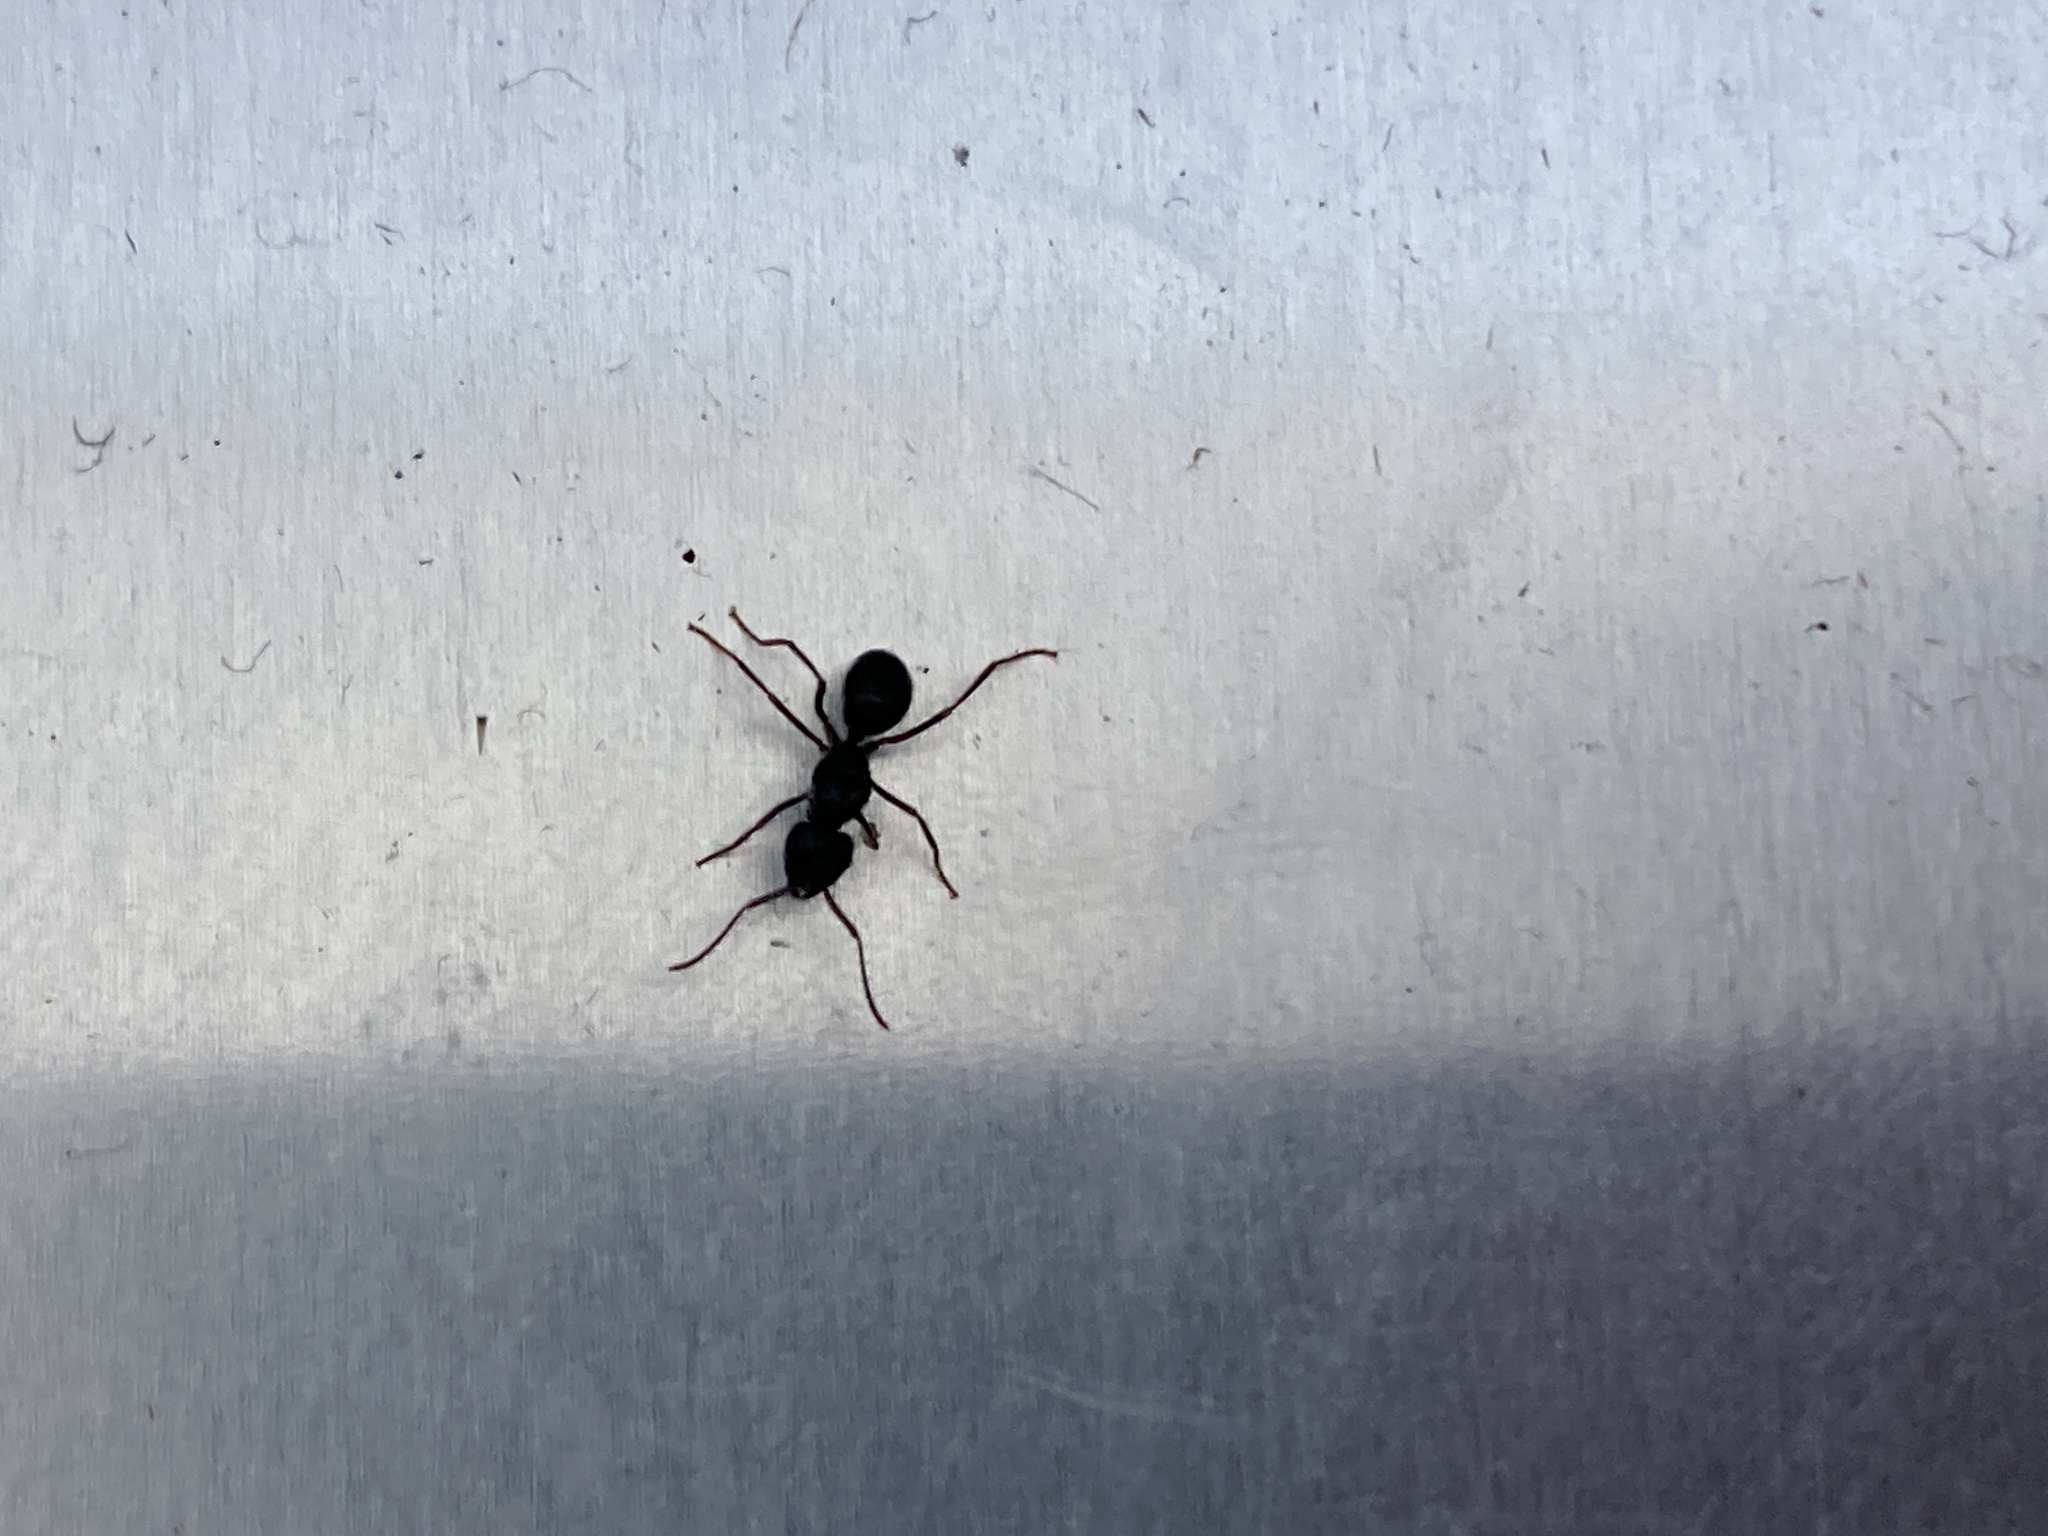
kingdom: Animalia
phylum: Arthropoda
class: Insecta
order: Hymenoptera
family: Formicidae
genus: Lasius
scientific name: Lasius fuliginosus
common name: Jet ant
